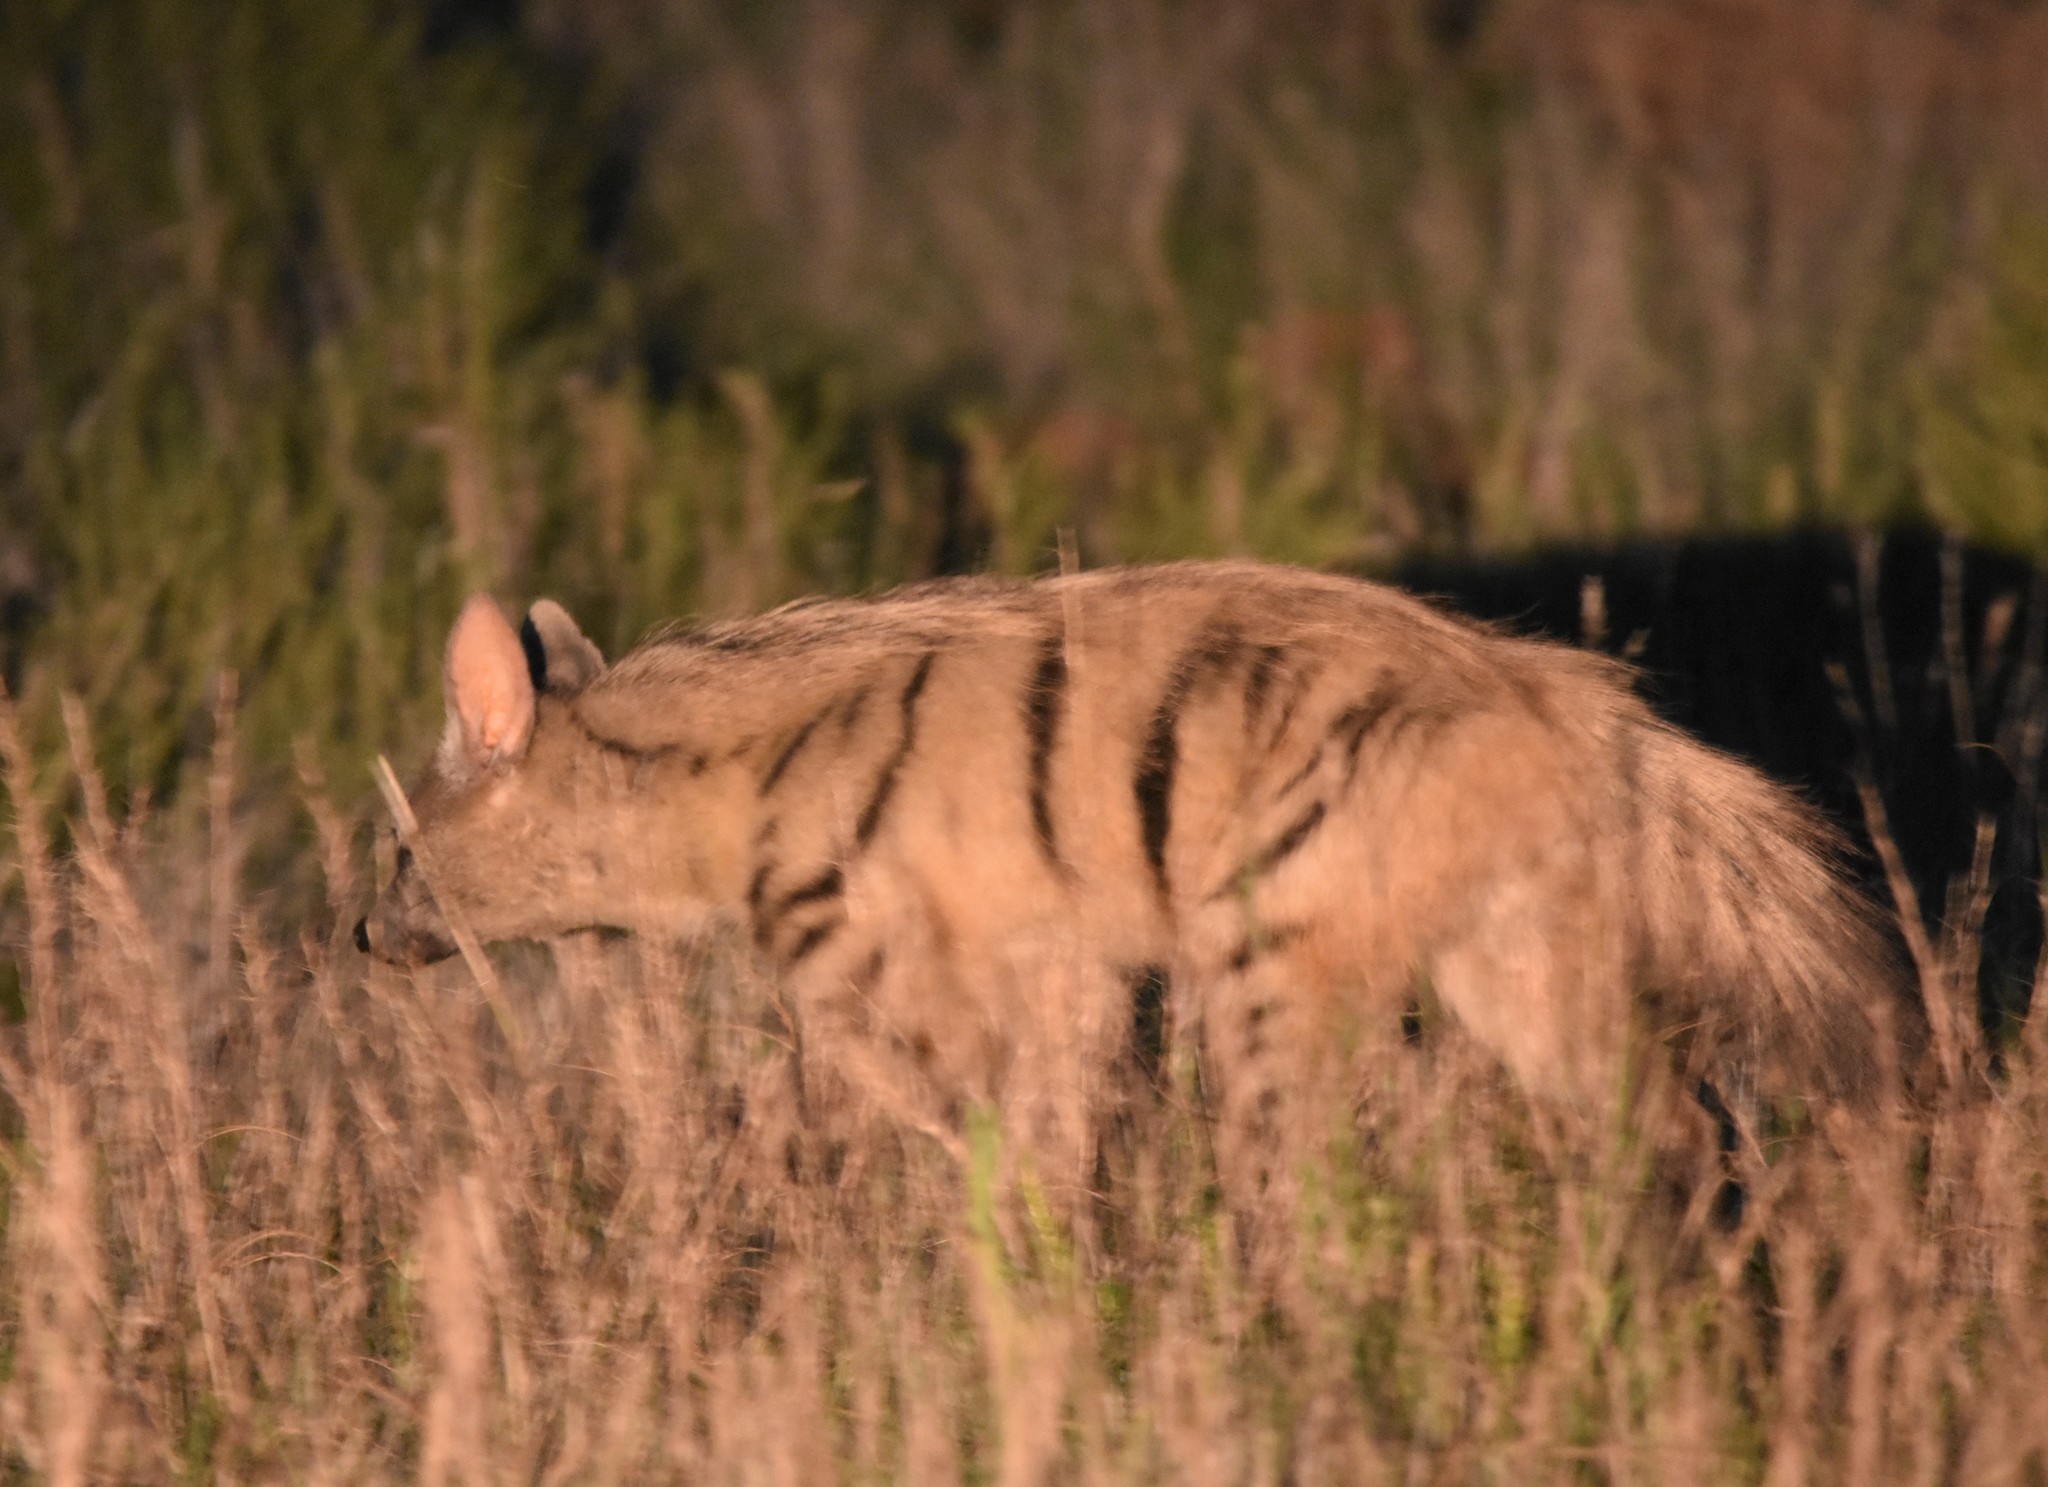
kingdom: Animalia
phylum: Chordata
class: Mammalia
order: Carnivora
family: Hyaenidae
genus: Proteles
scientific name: Proteles cristata
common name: Aardwolf
